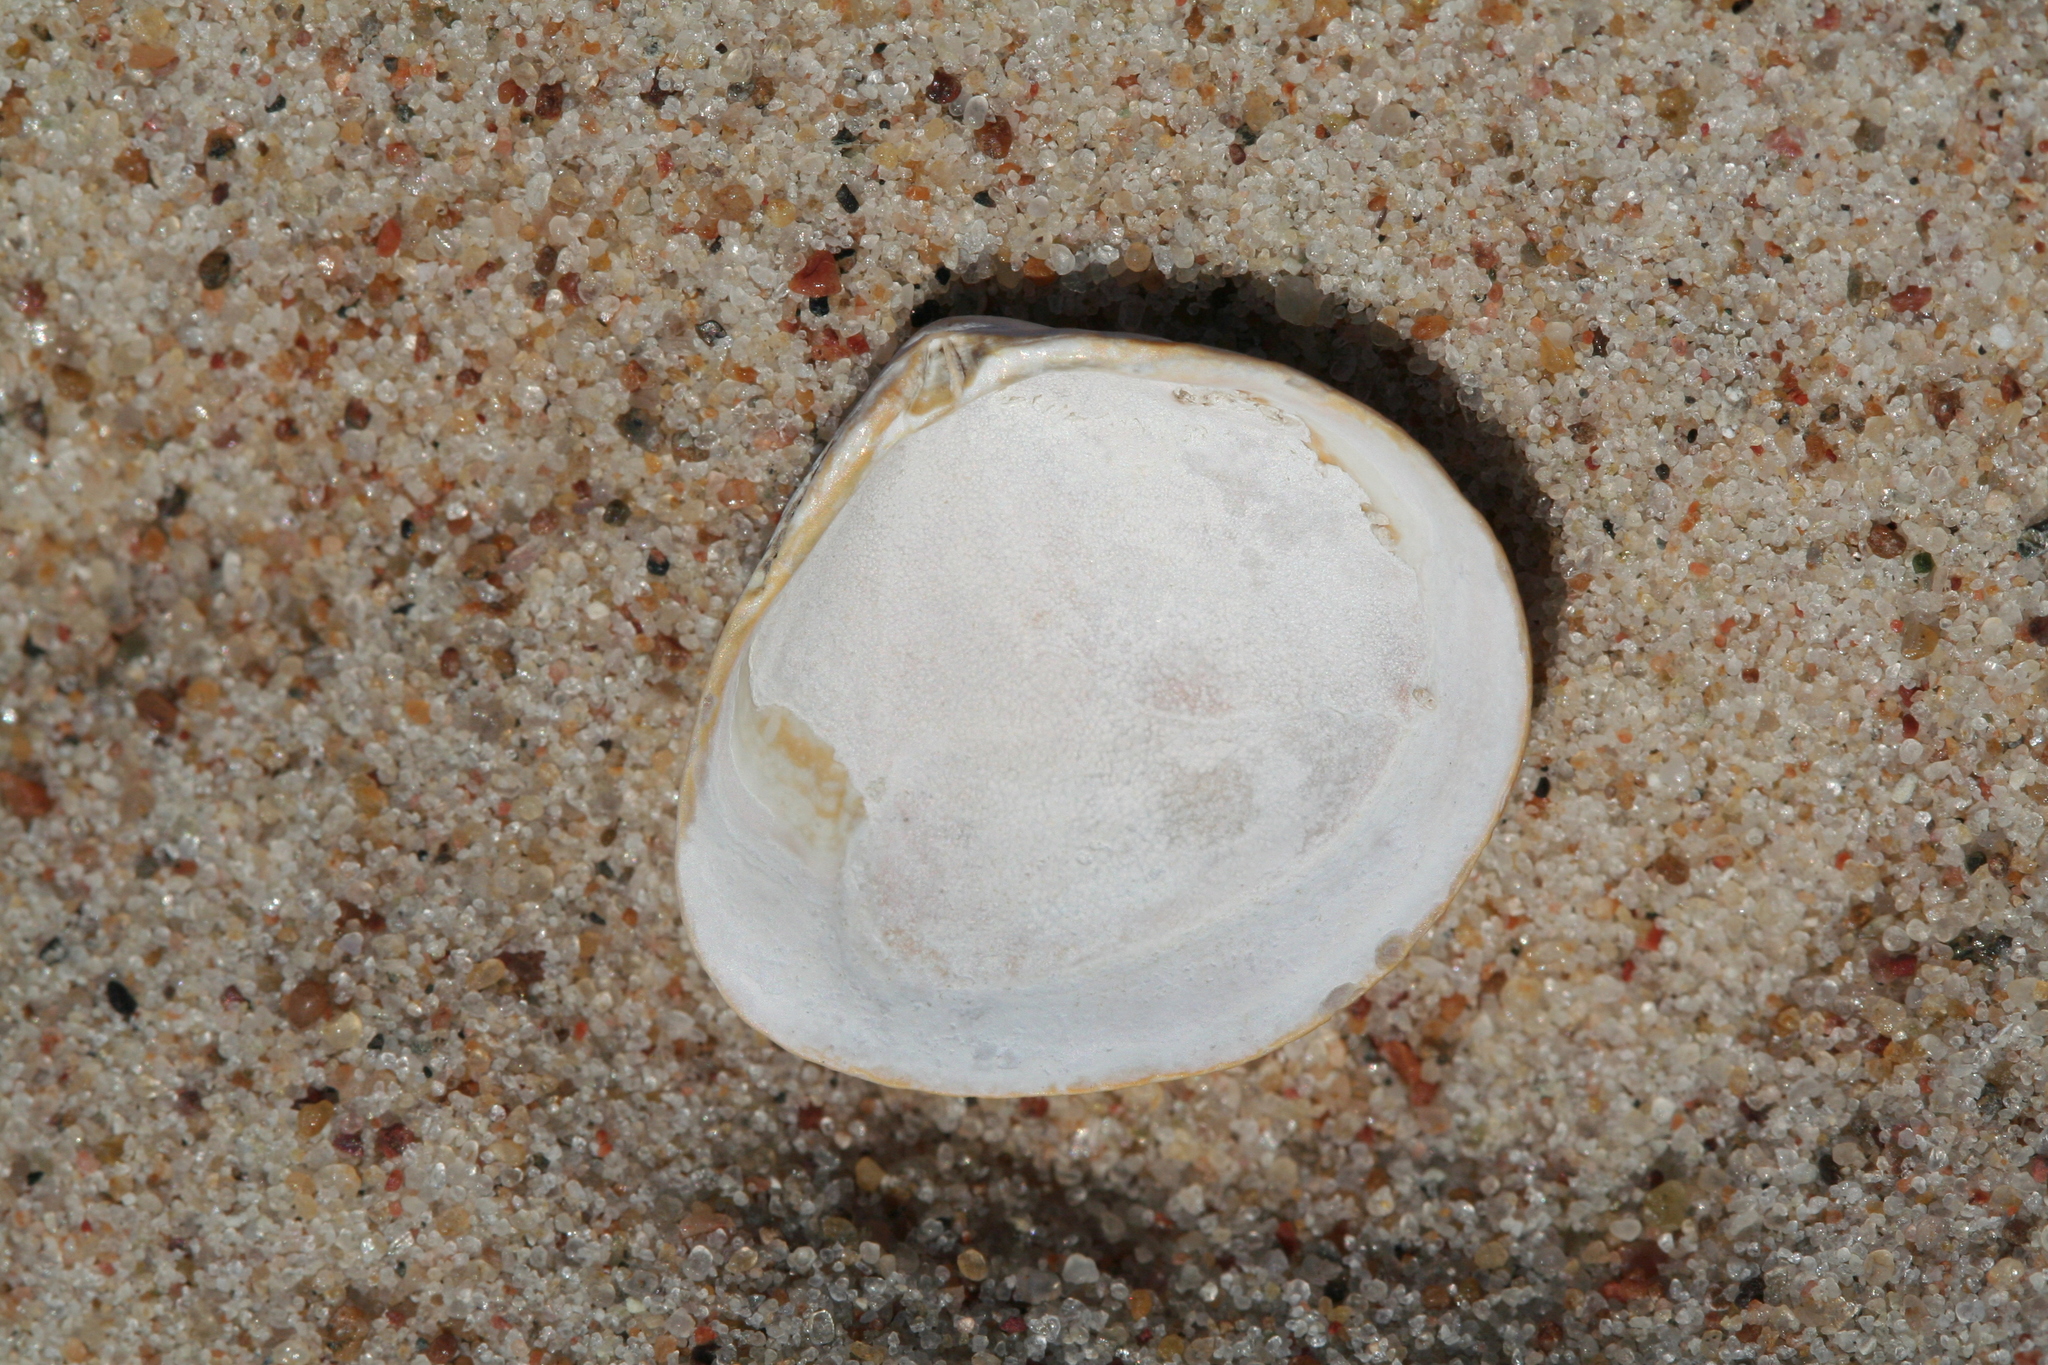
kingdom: Animalia
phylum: Mollusca
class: Bivalvia
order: Cardiida
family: Tellinidae
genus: Macoma
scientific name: Macoma balthica
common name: Baltic tellin
